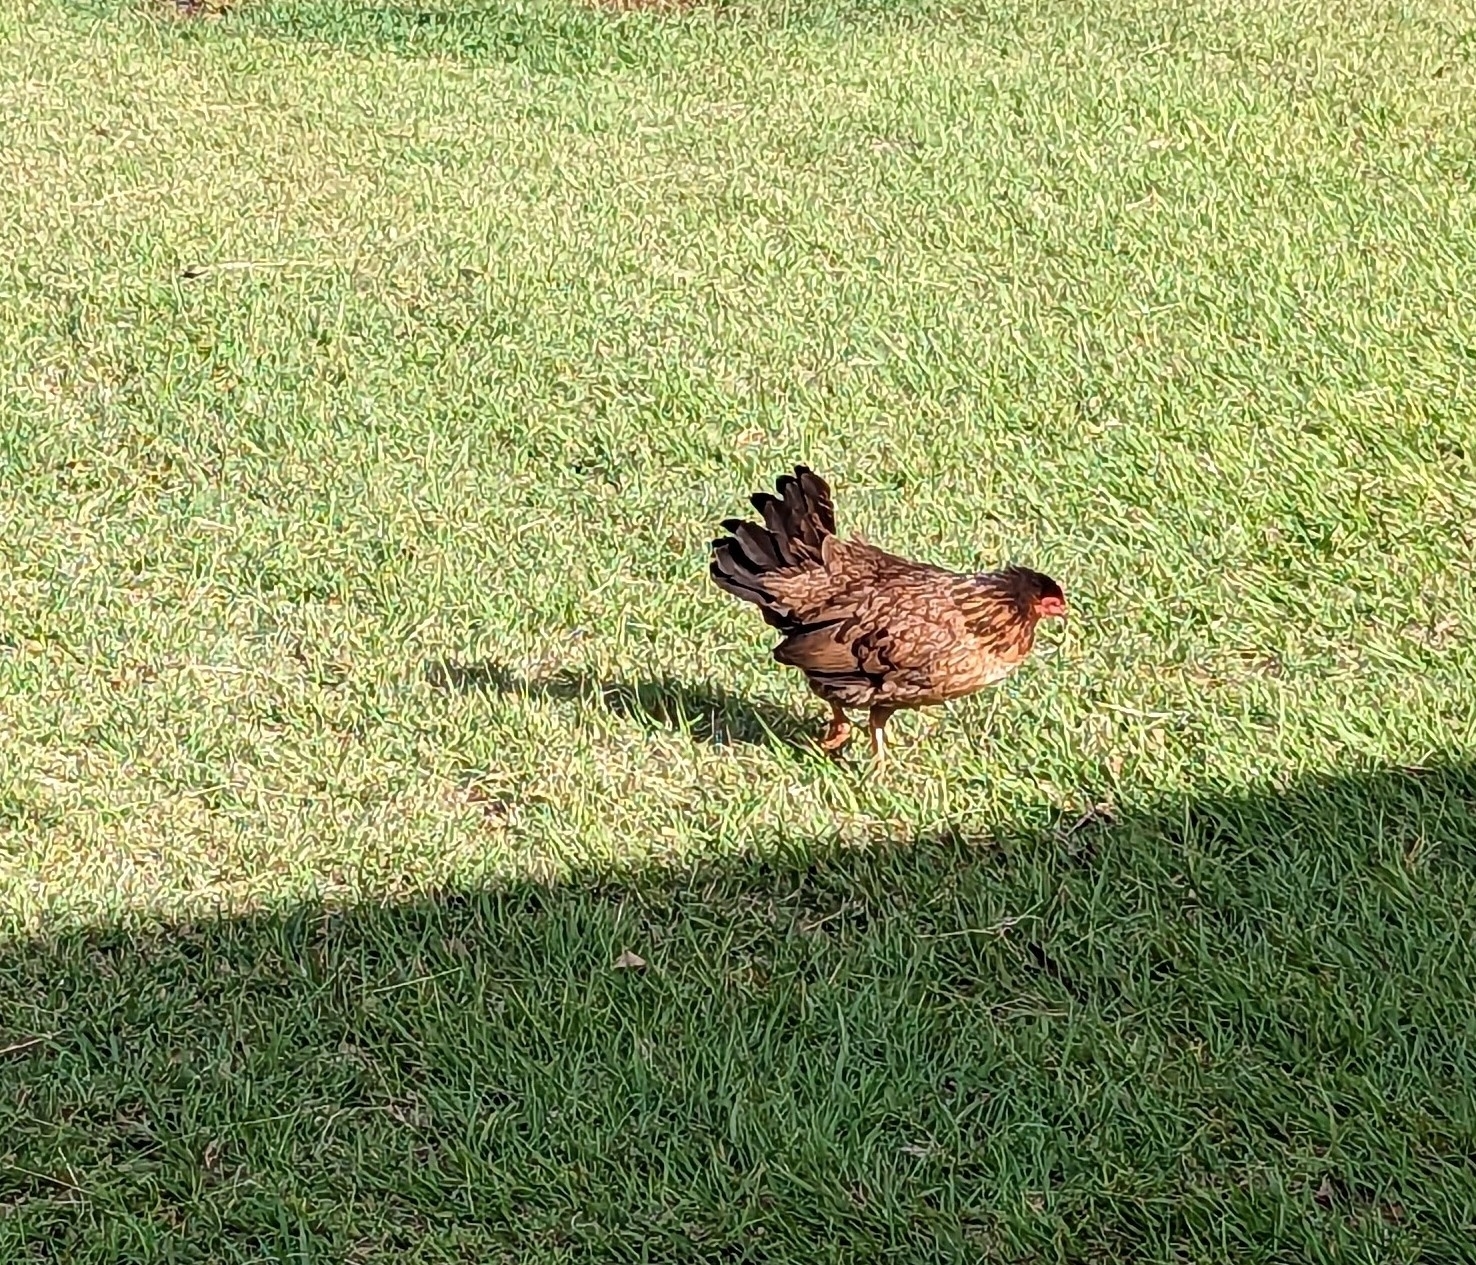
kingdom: Animalia
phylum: Chordata
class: Aves
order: Galliformes
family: Phasianidae
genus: Gallus
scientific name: Gallus gallus
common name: Red junglefowl
